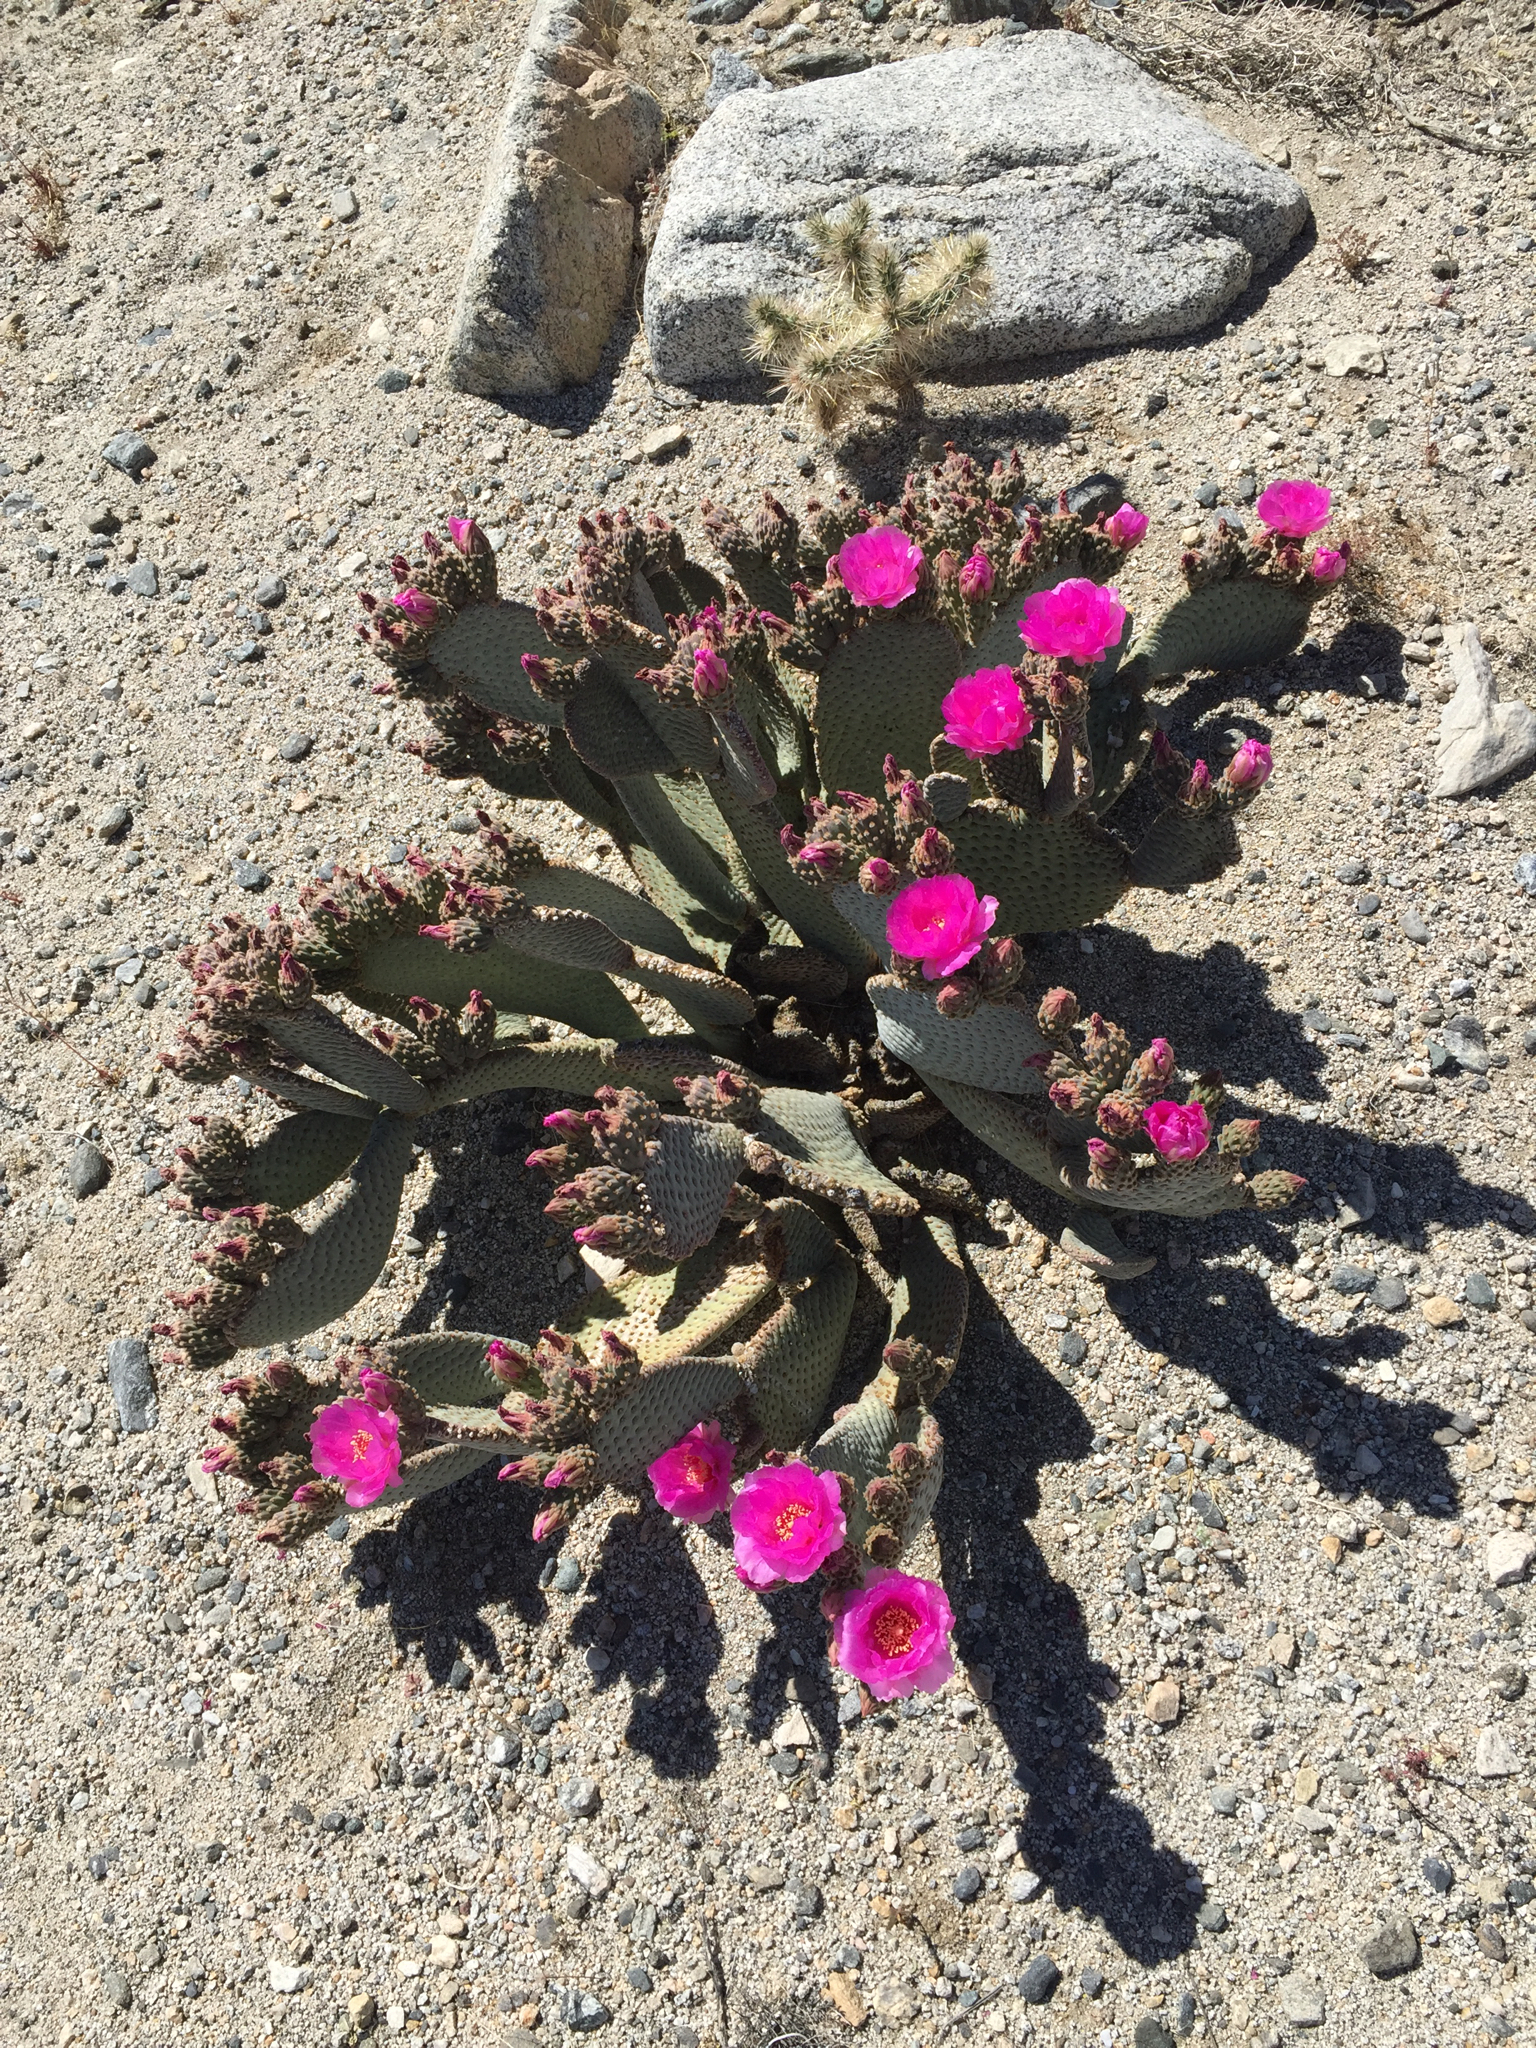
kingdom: Plantae
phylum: Tracheophyta
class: Magnoliopsida
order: Caryophyllales
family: Cactaceae
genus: Opuntia
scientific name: Opuntia basilaris
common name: Beavertail prickly-pear
